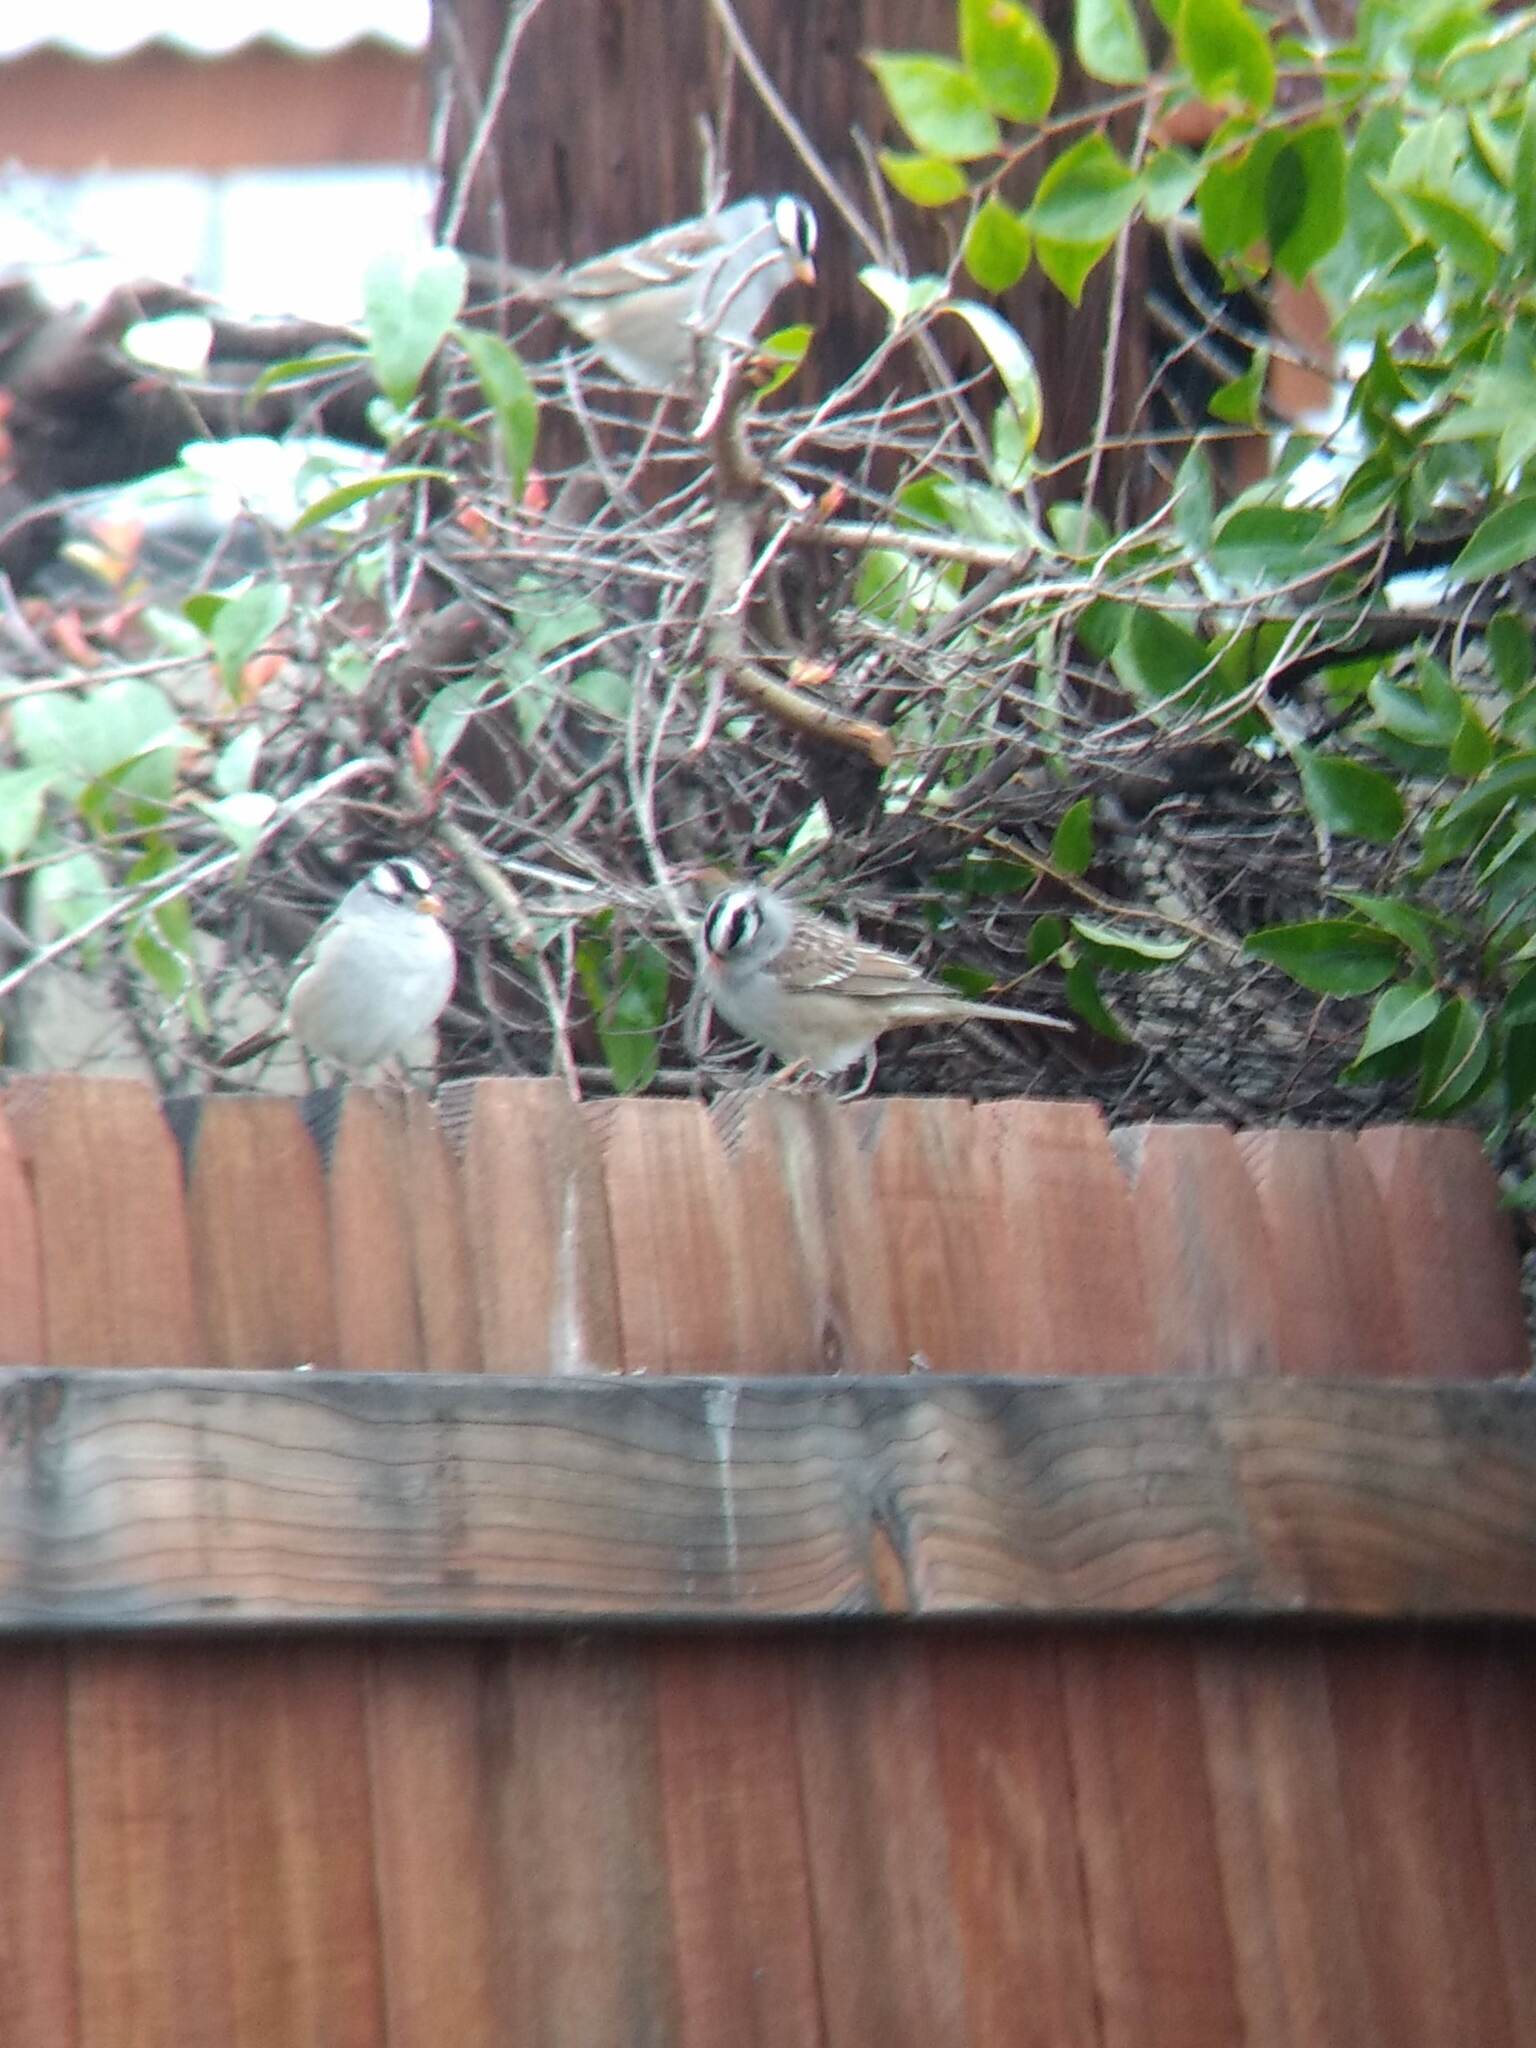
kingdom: Animalia
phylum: Chordata
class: Aves
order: Passeriformes
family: Passerellidae
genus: Zonotrichia
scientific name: Zonotrichia leucophrys
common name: White-crowned sparrow
